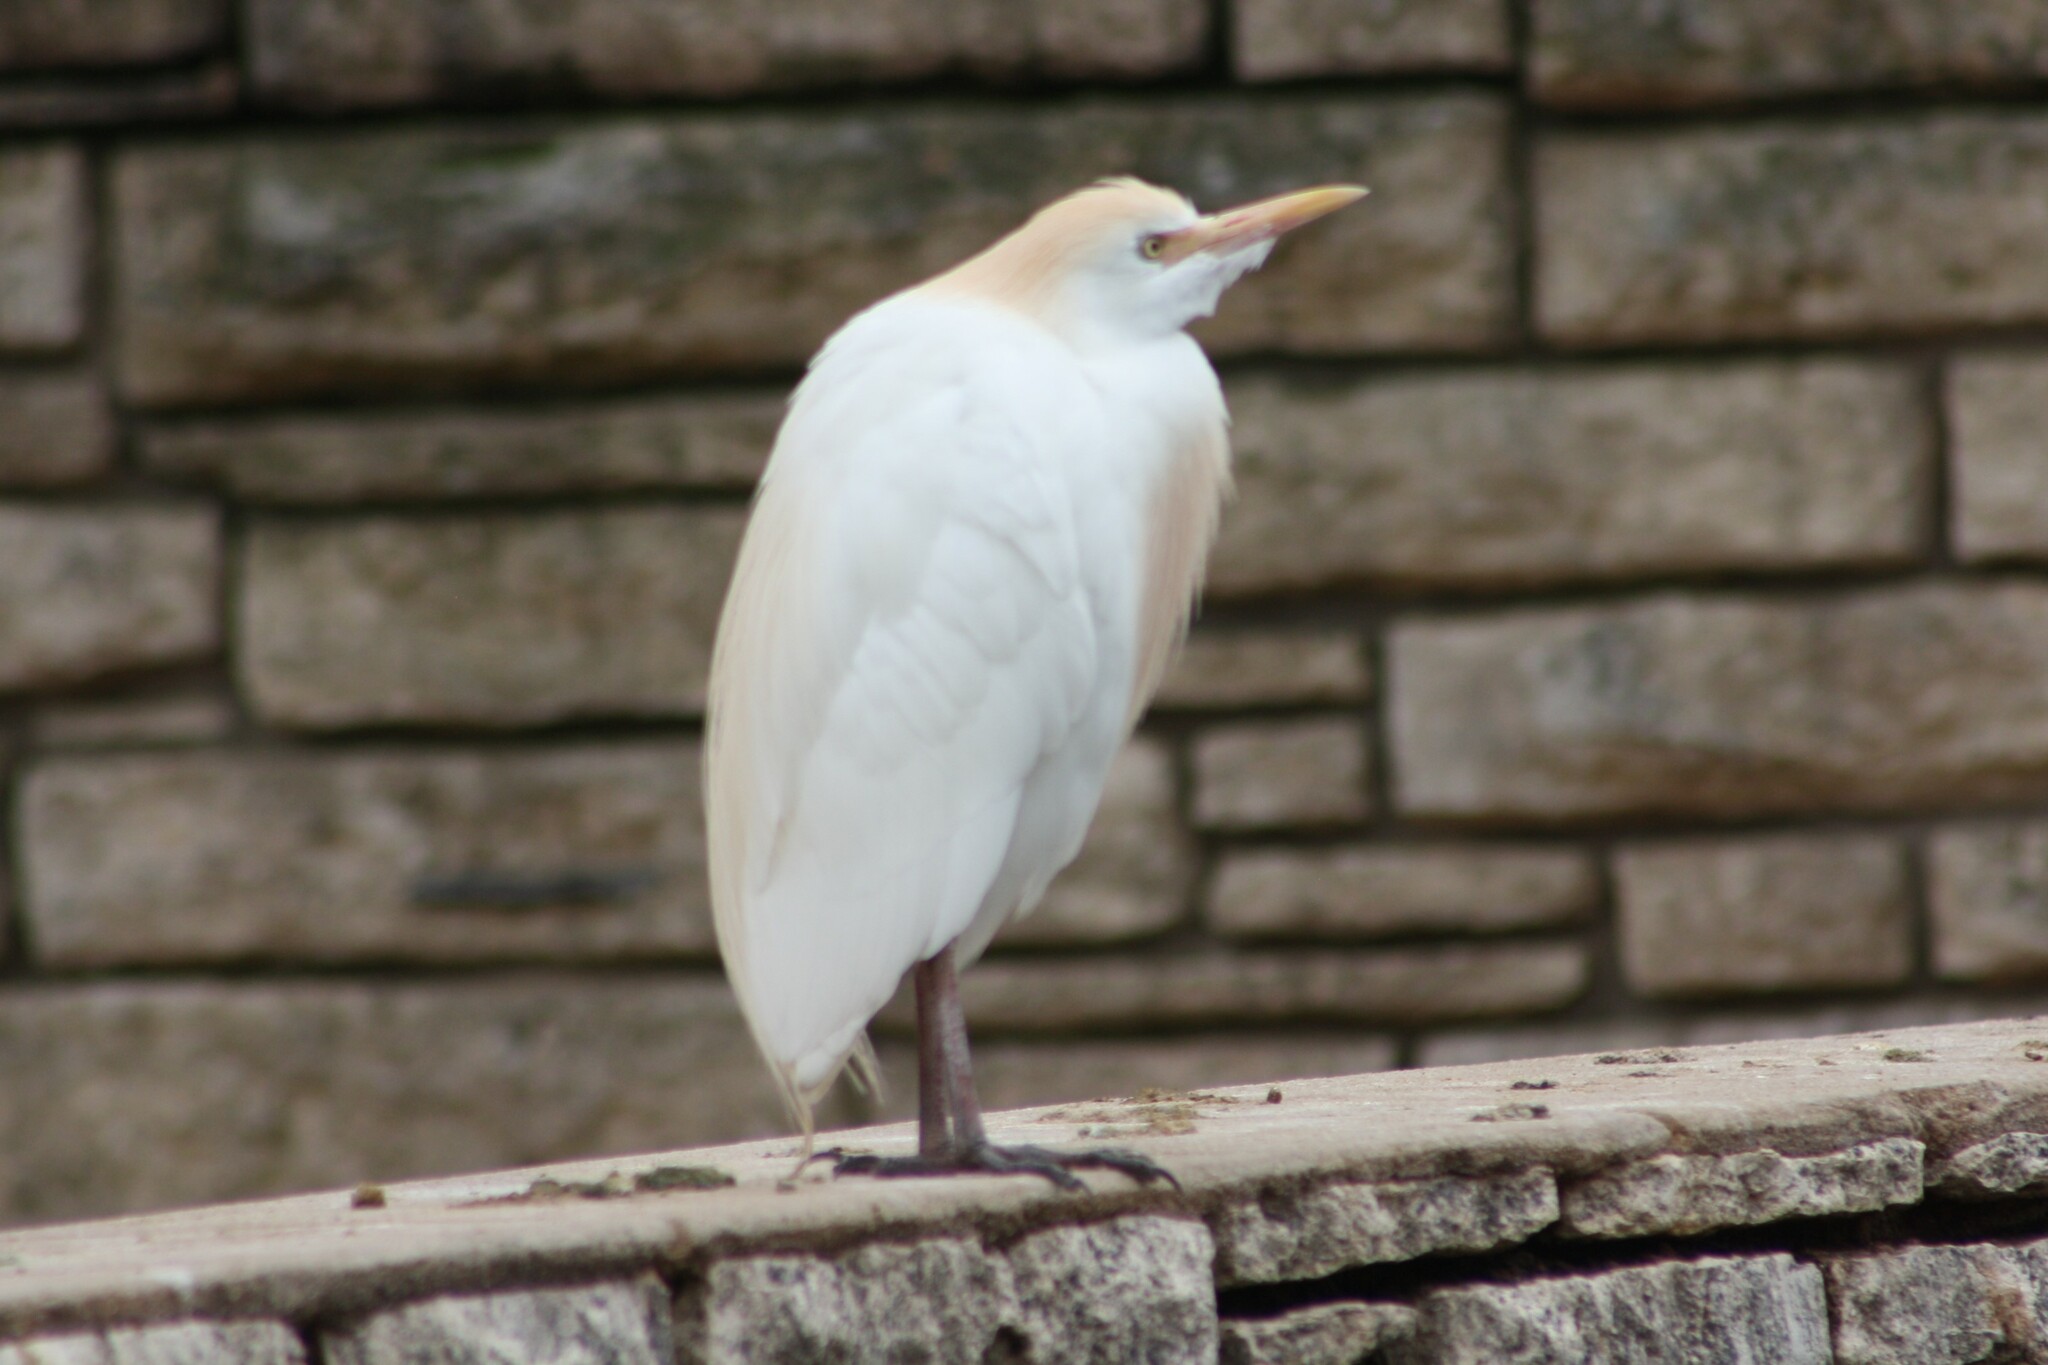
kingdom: Animalia
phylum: Chordata
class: Aves
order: Pelecaniformes
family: Ardeidae
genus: Bubulcus
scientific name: Bubulcus ibis
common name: Cattle egret
